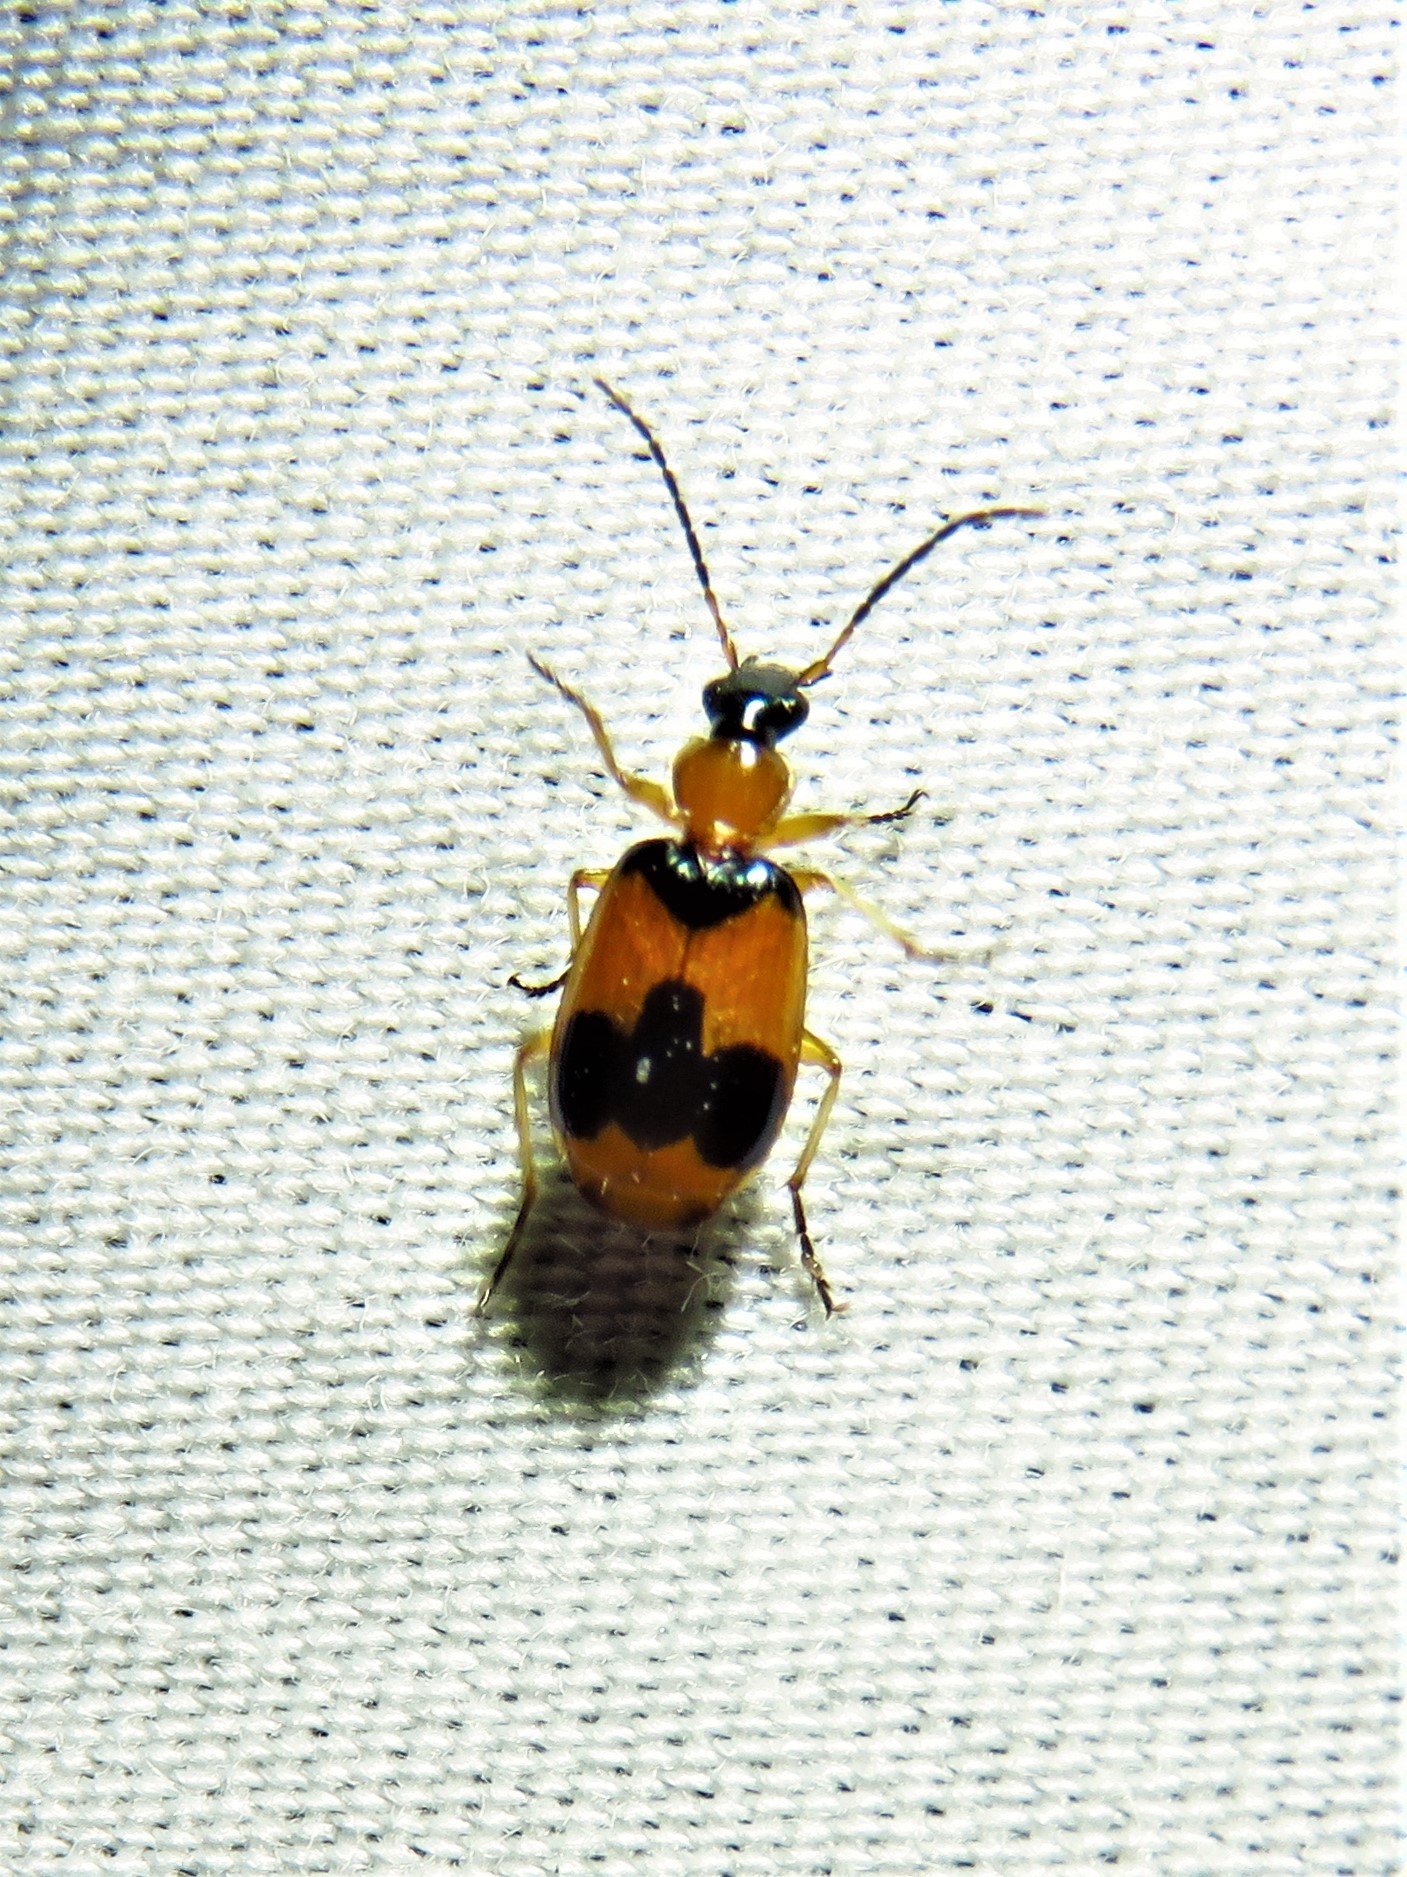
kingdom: Animalia
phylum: Arthropoda
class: Insecta
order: Coleoptera
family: Carabidae
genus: Lebia
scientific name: Lebia pulchella
